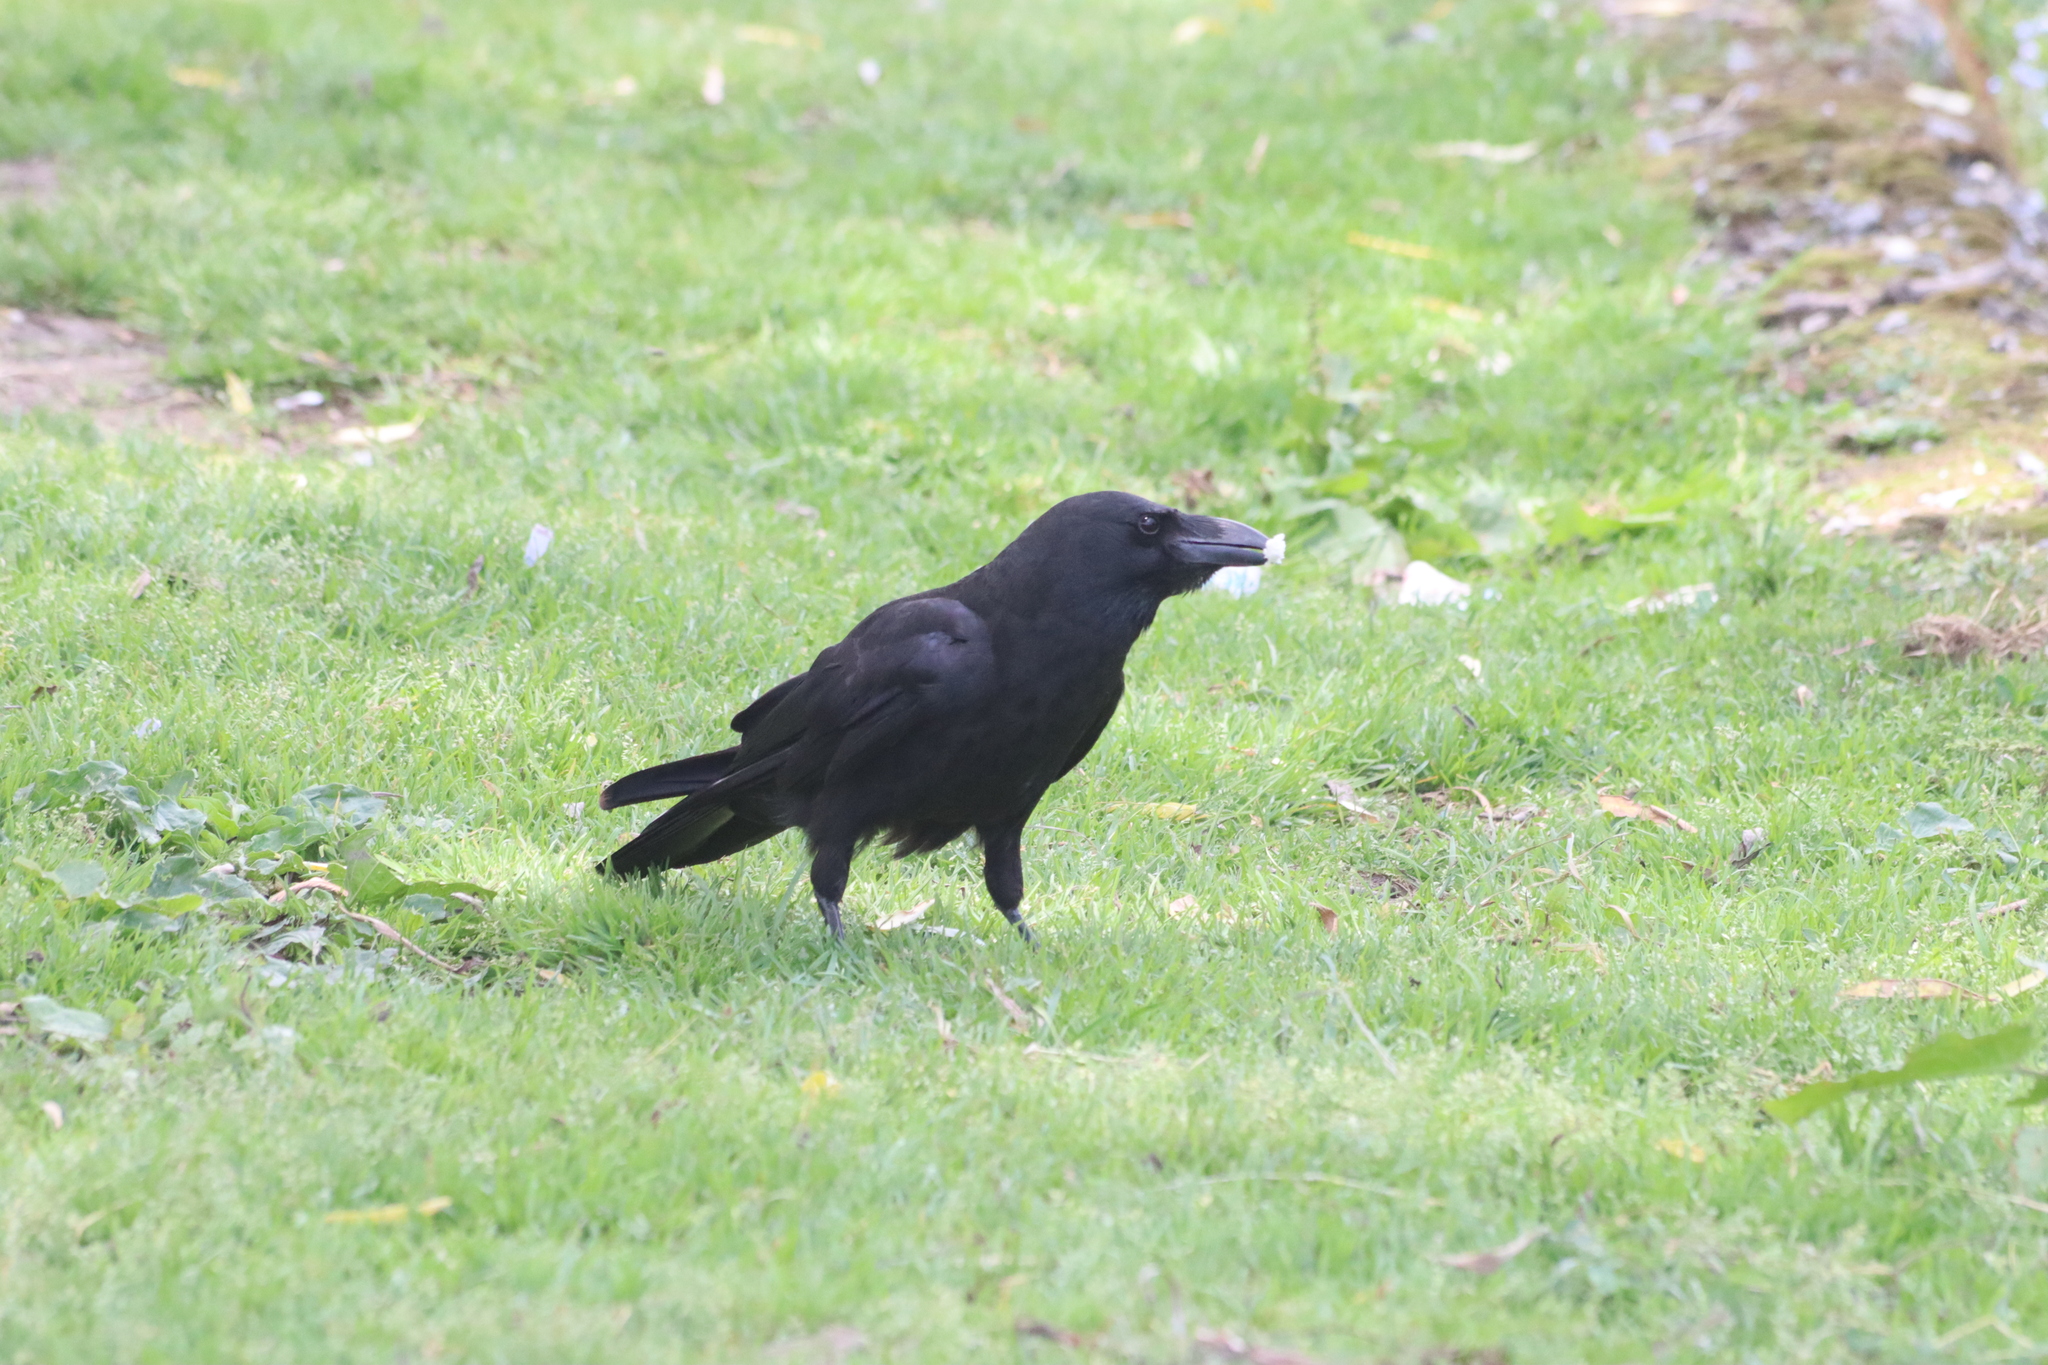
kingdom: Animalia
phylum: Chordata
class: Aves
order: Passeriformes
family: Corvidae
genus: Corvus
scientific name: Corvus macrorhynchos
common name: Large-billed crow
